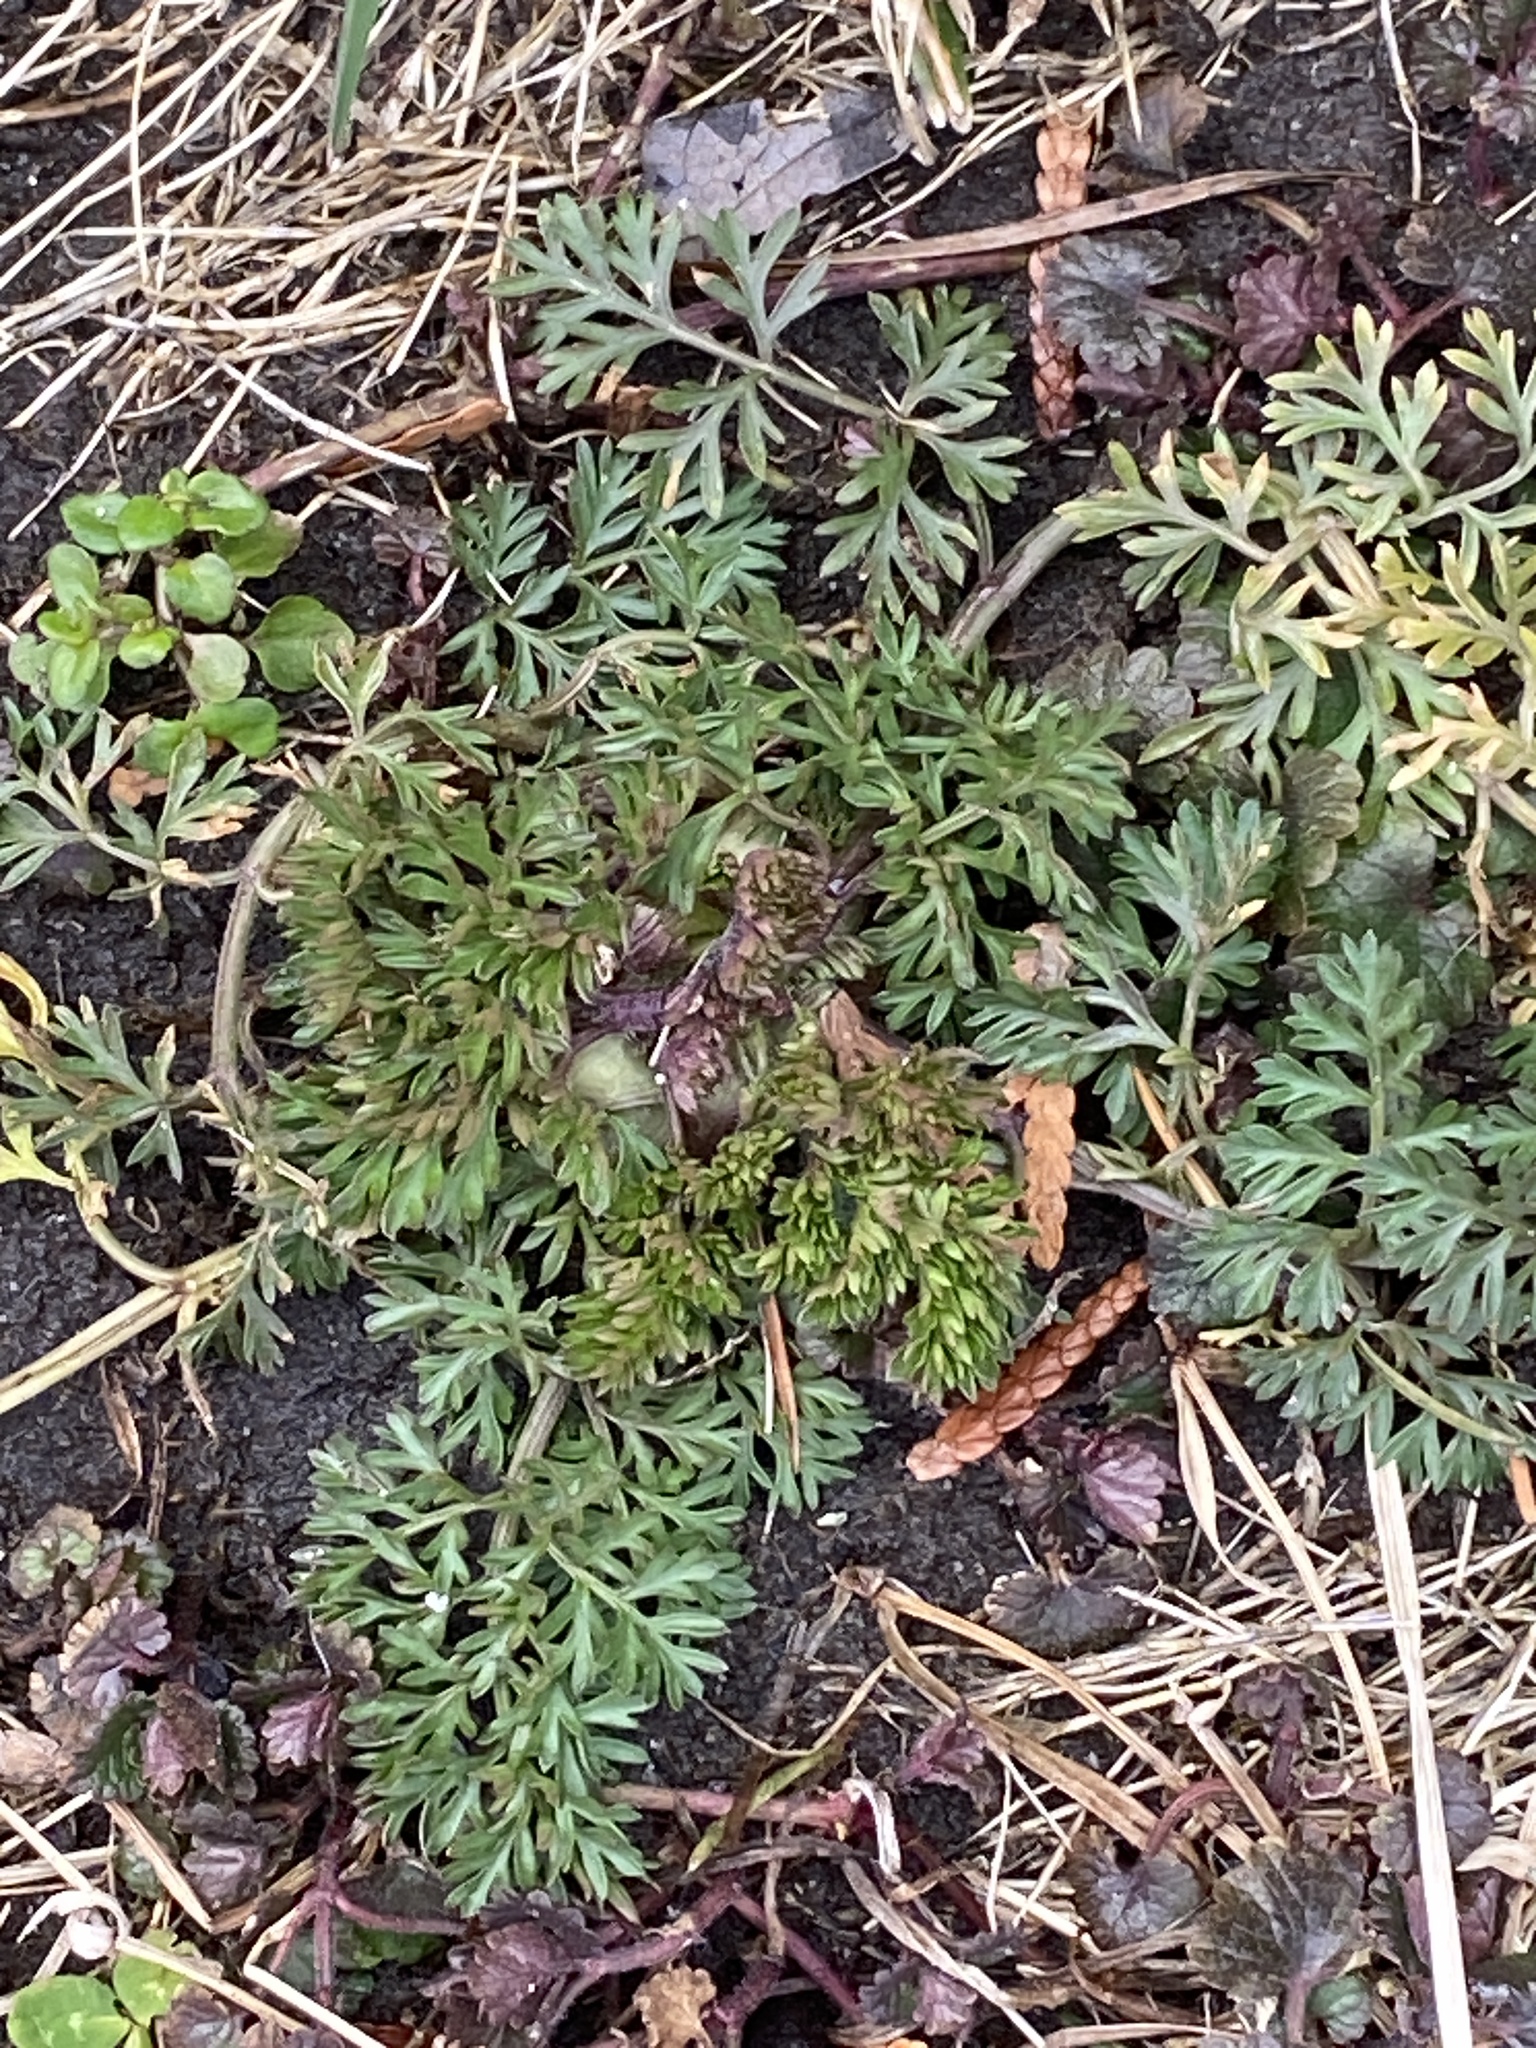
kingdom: Plantae
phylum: Tracheophyta
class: Magnoliopsida
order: Apiales
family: Apiaceae
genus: Daucus
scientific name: Daucus carota
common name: Wild carrot
